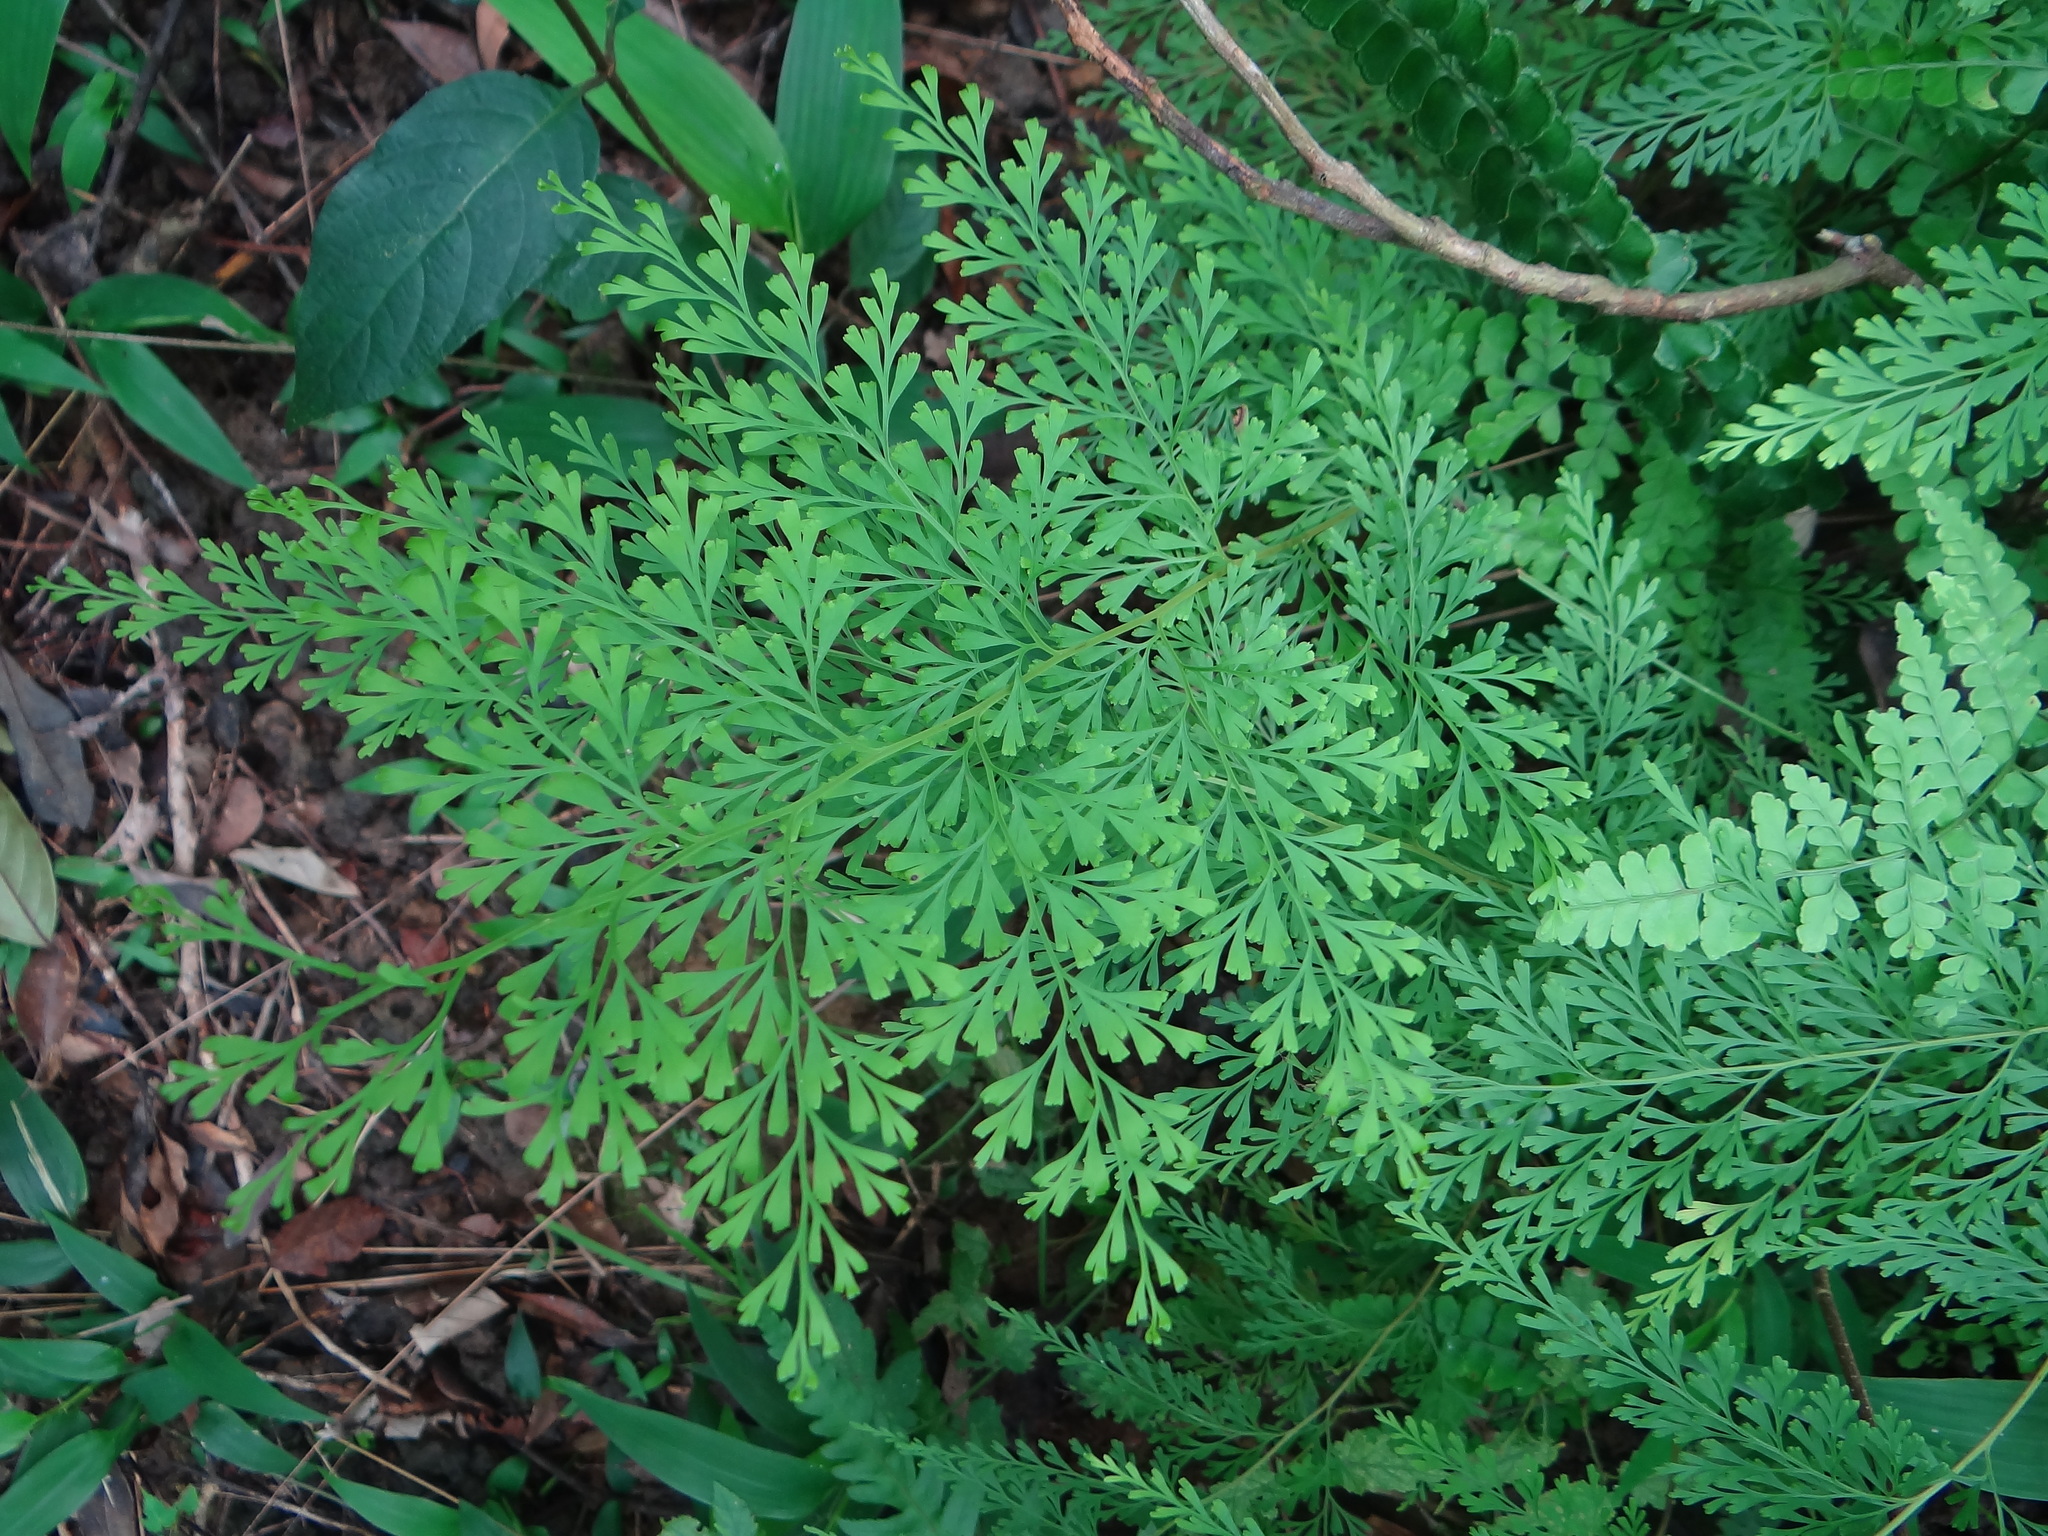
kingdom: Plantae
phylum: Tracheophyta
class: Polypodiopsida
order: Polypodiales
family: Lindsaeaceae
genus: Odontosoria
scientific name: Odontosoria chinensis
